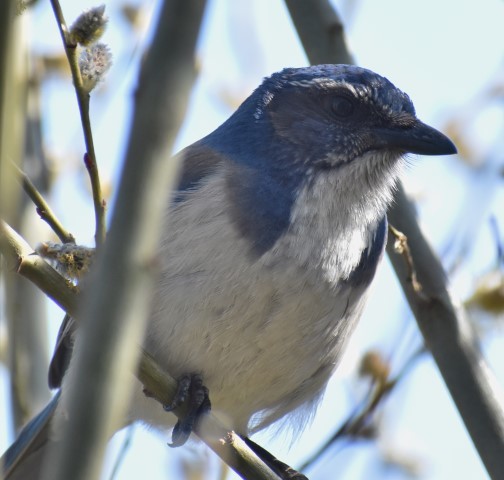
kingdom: Animalia
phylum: Chordata
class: Aves
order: Passeriformes
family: Corvidae
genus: Aphelocoma
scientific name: Aphelocoma californica
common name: California scrub-jay
